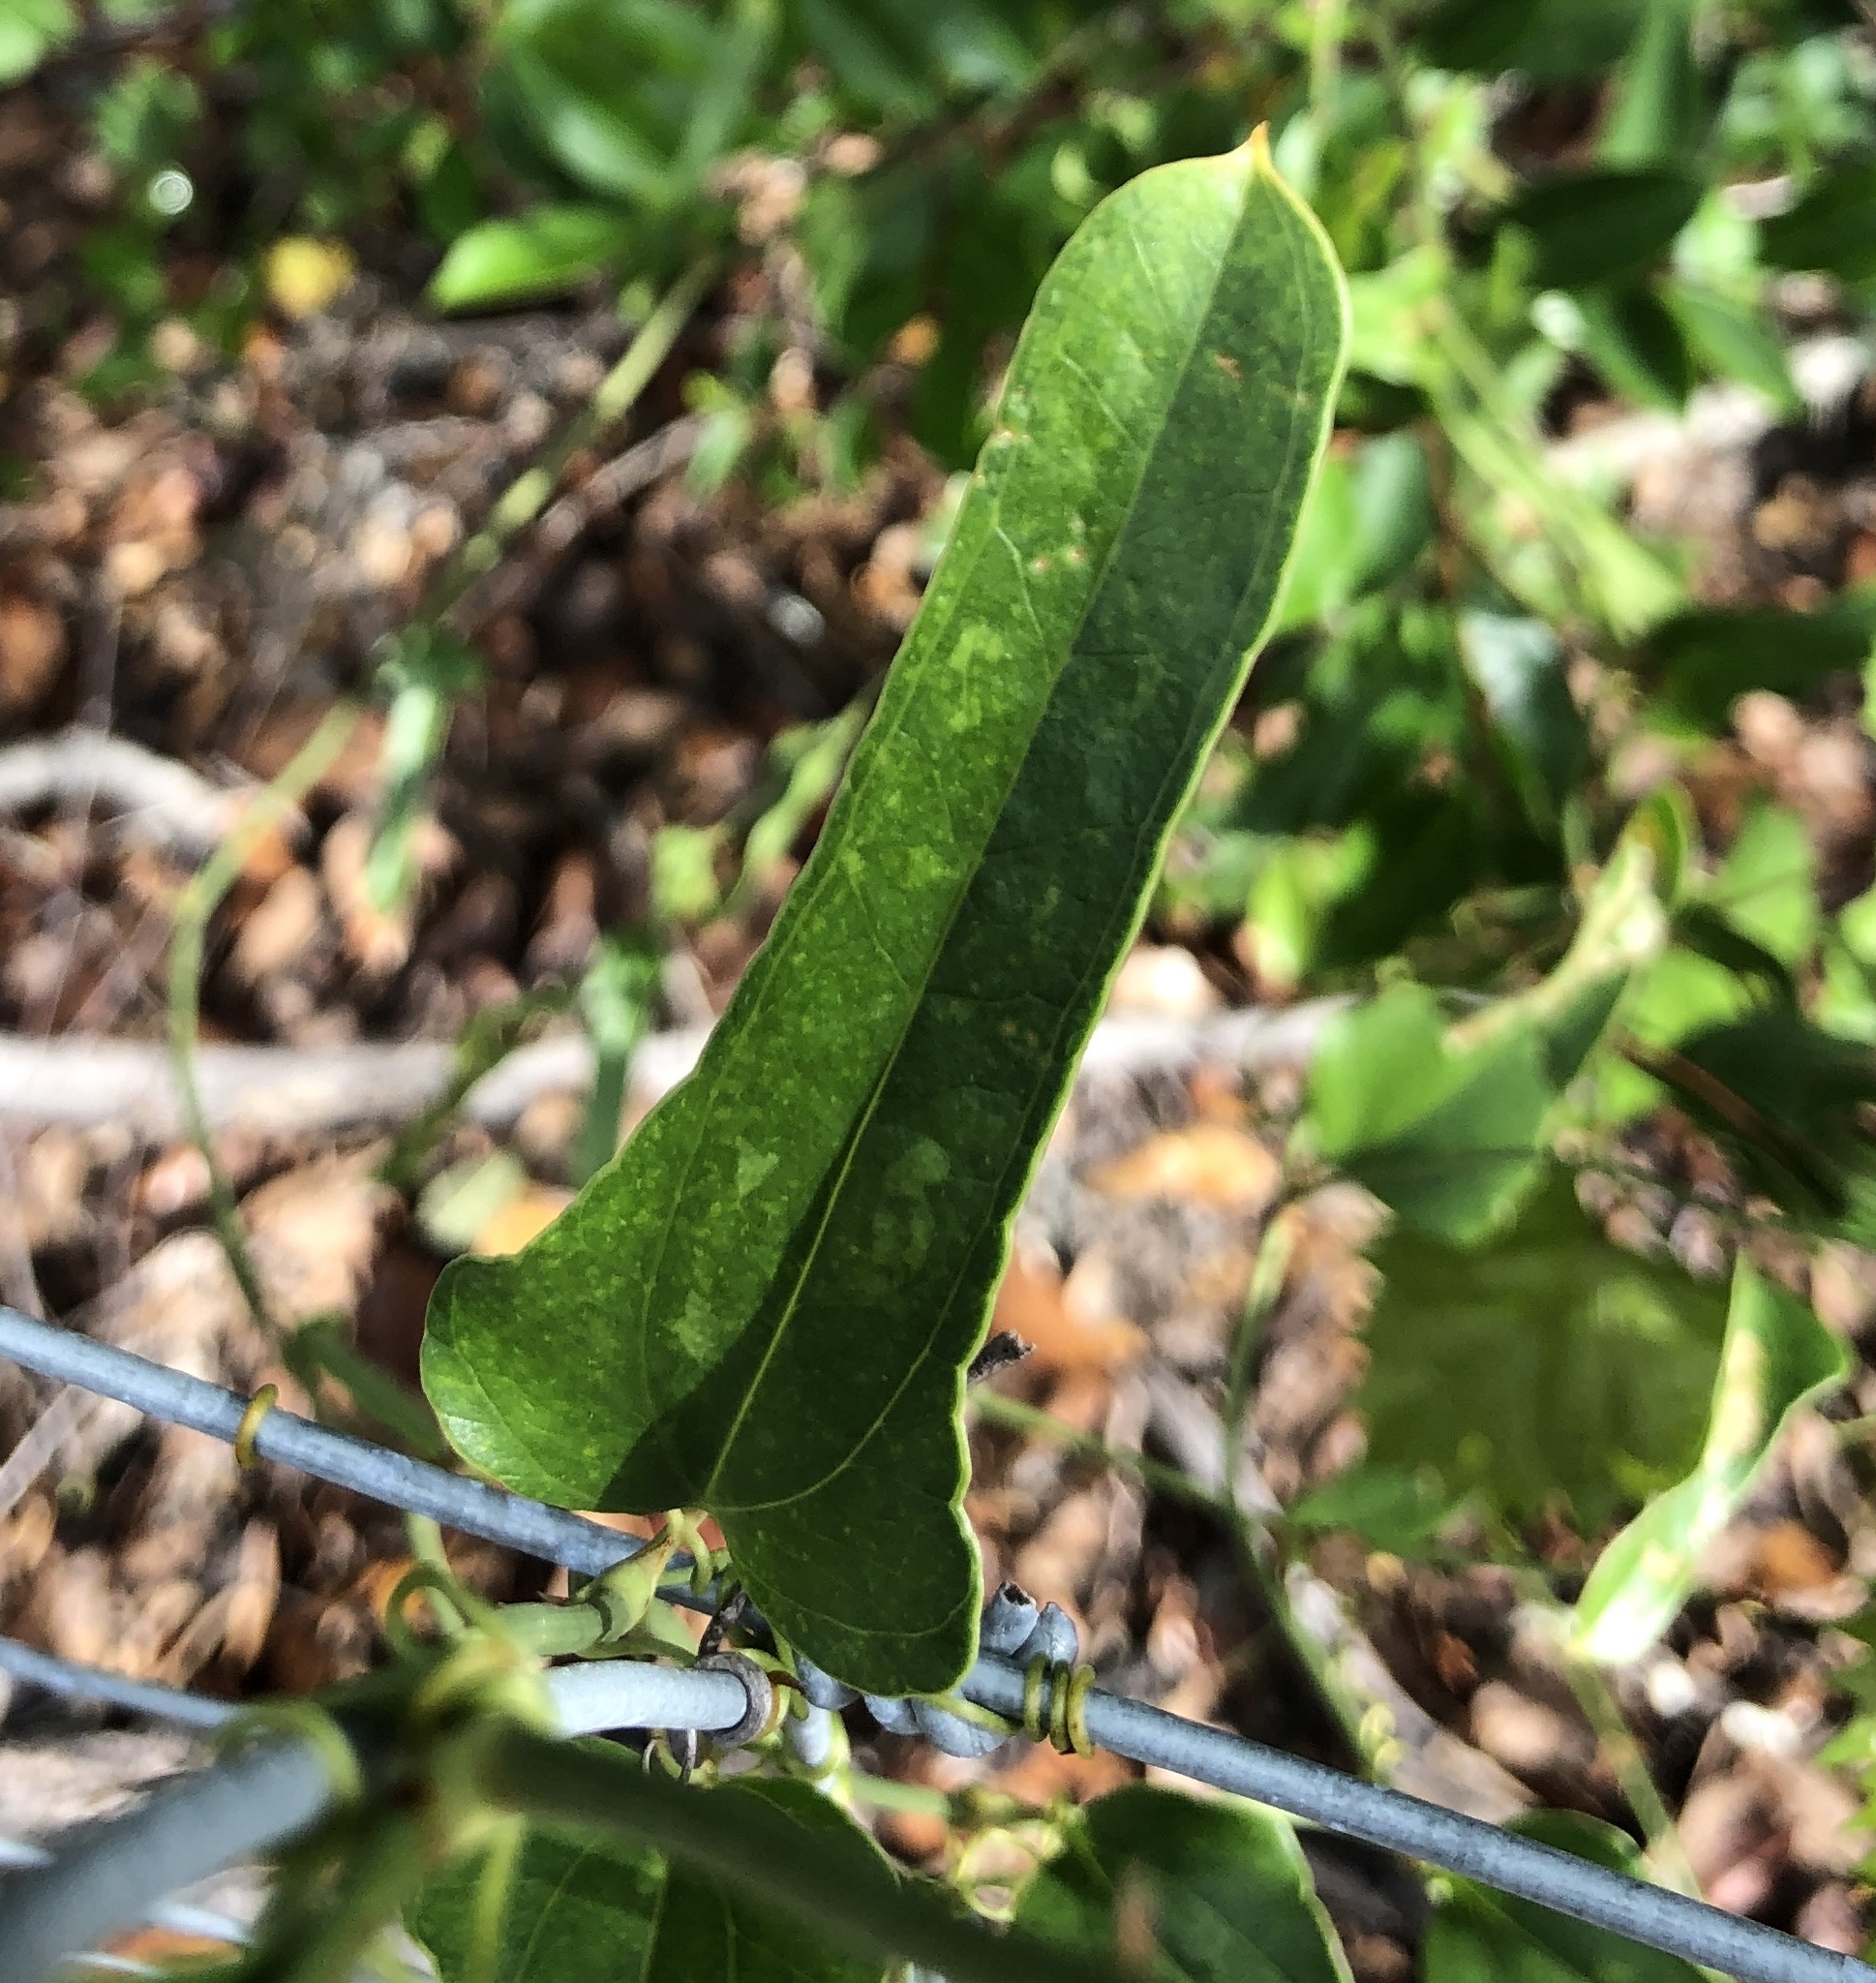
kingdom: Plantae
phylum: Tracheophyta
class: Liliopsida
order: Liliales
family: Smilacaceae
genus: Smilax
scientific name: Smilax auriculata
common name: Wild bamboo
